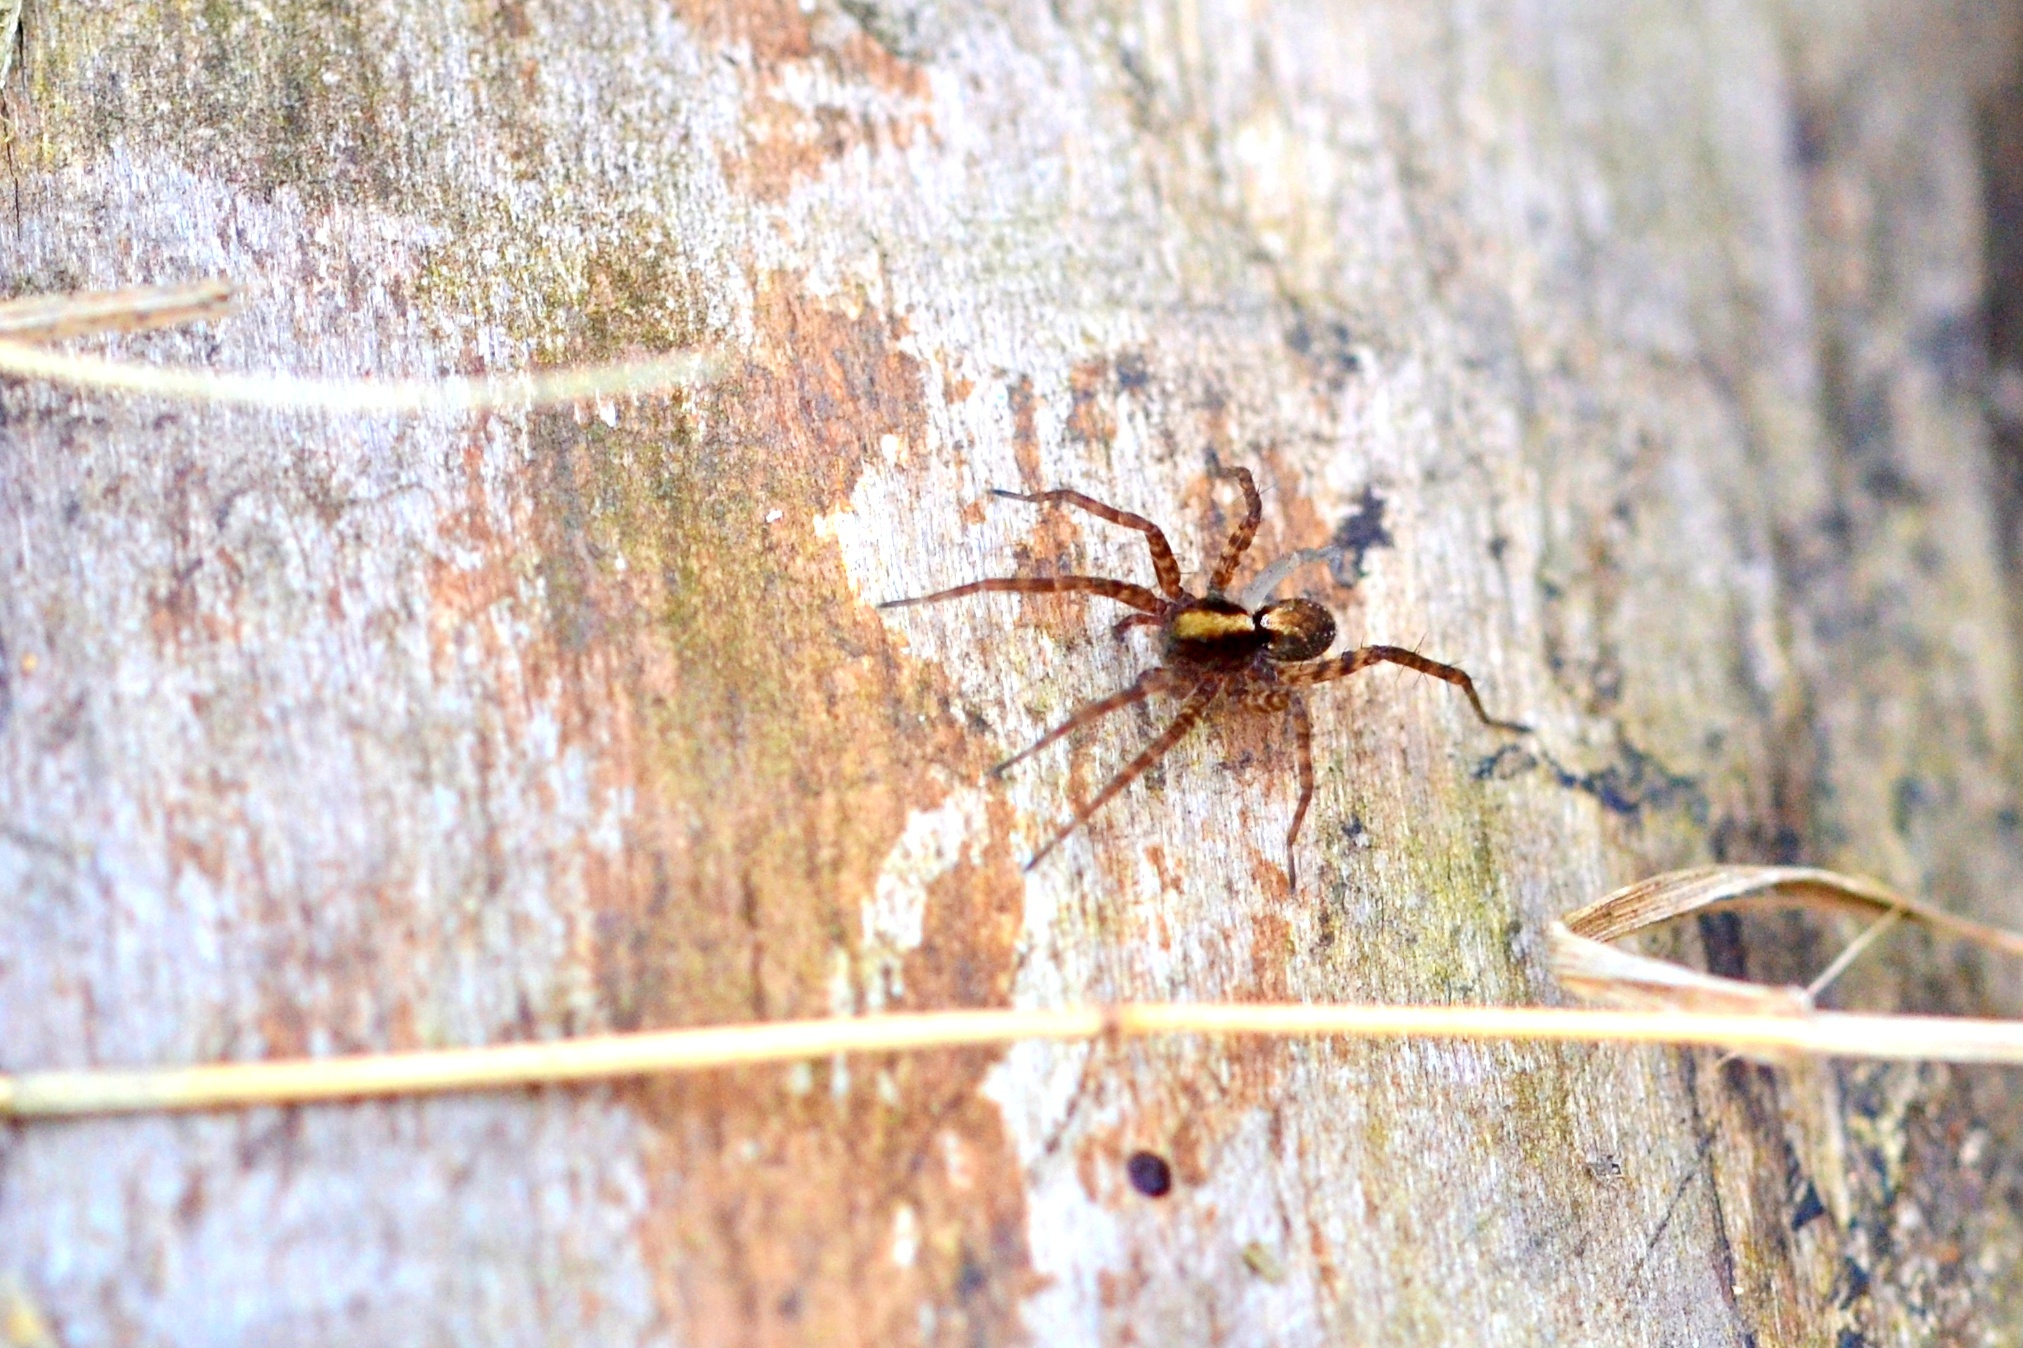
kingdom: Animalia
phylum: Arthropoda
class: Arachnida
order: Araneae
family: Lycosidae
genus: Pardosa
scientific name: Pardosa
